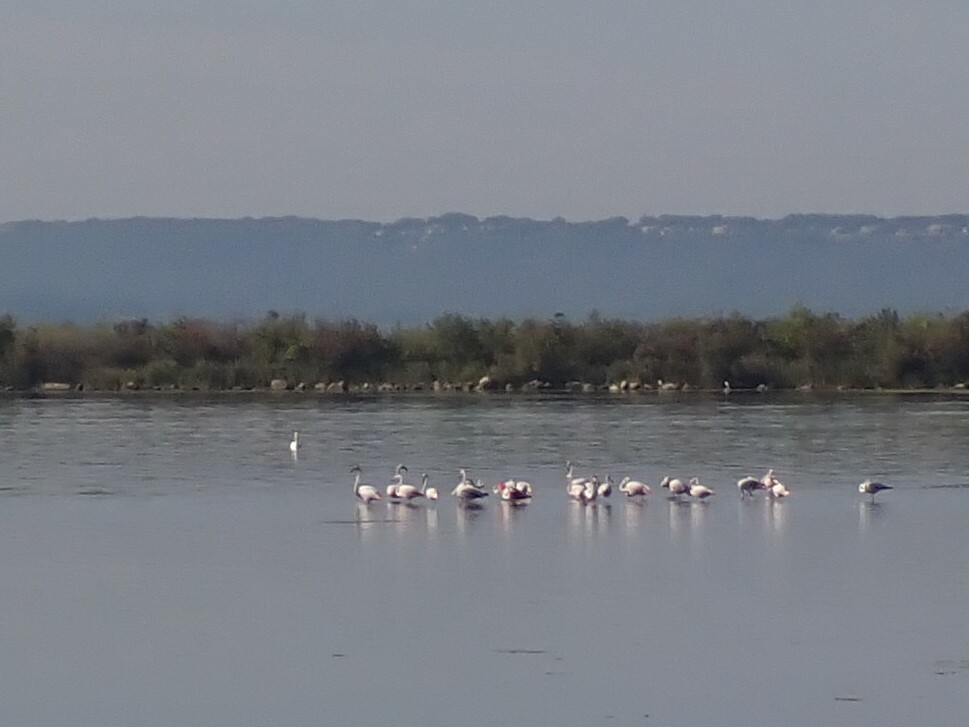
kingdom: Animalia
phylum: Chordata
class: Aves
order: Phoenicopteriformes
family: Phoenicopteridae
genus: Phoenicopterus
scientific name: Phoenicopterus roseus
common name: Greater flamingo
